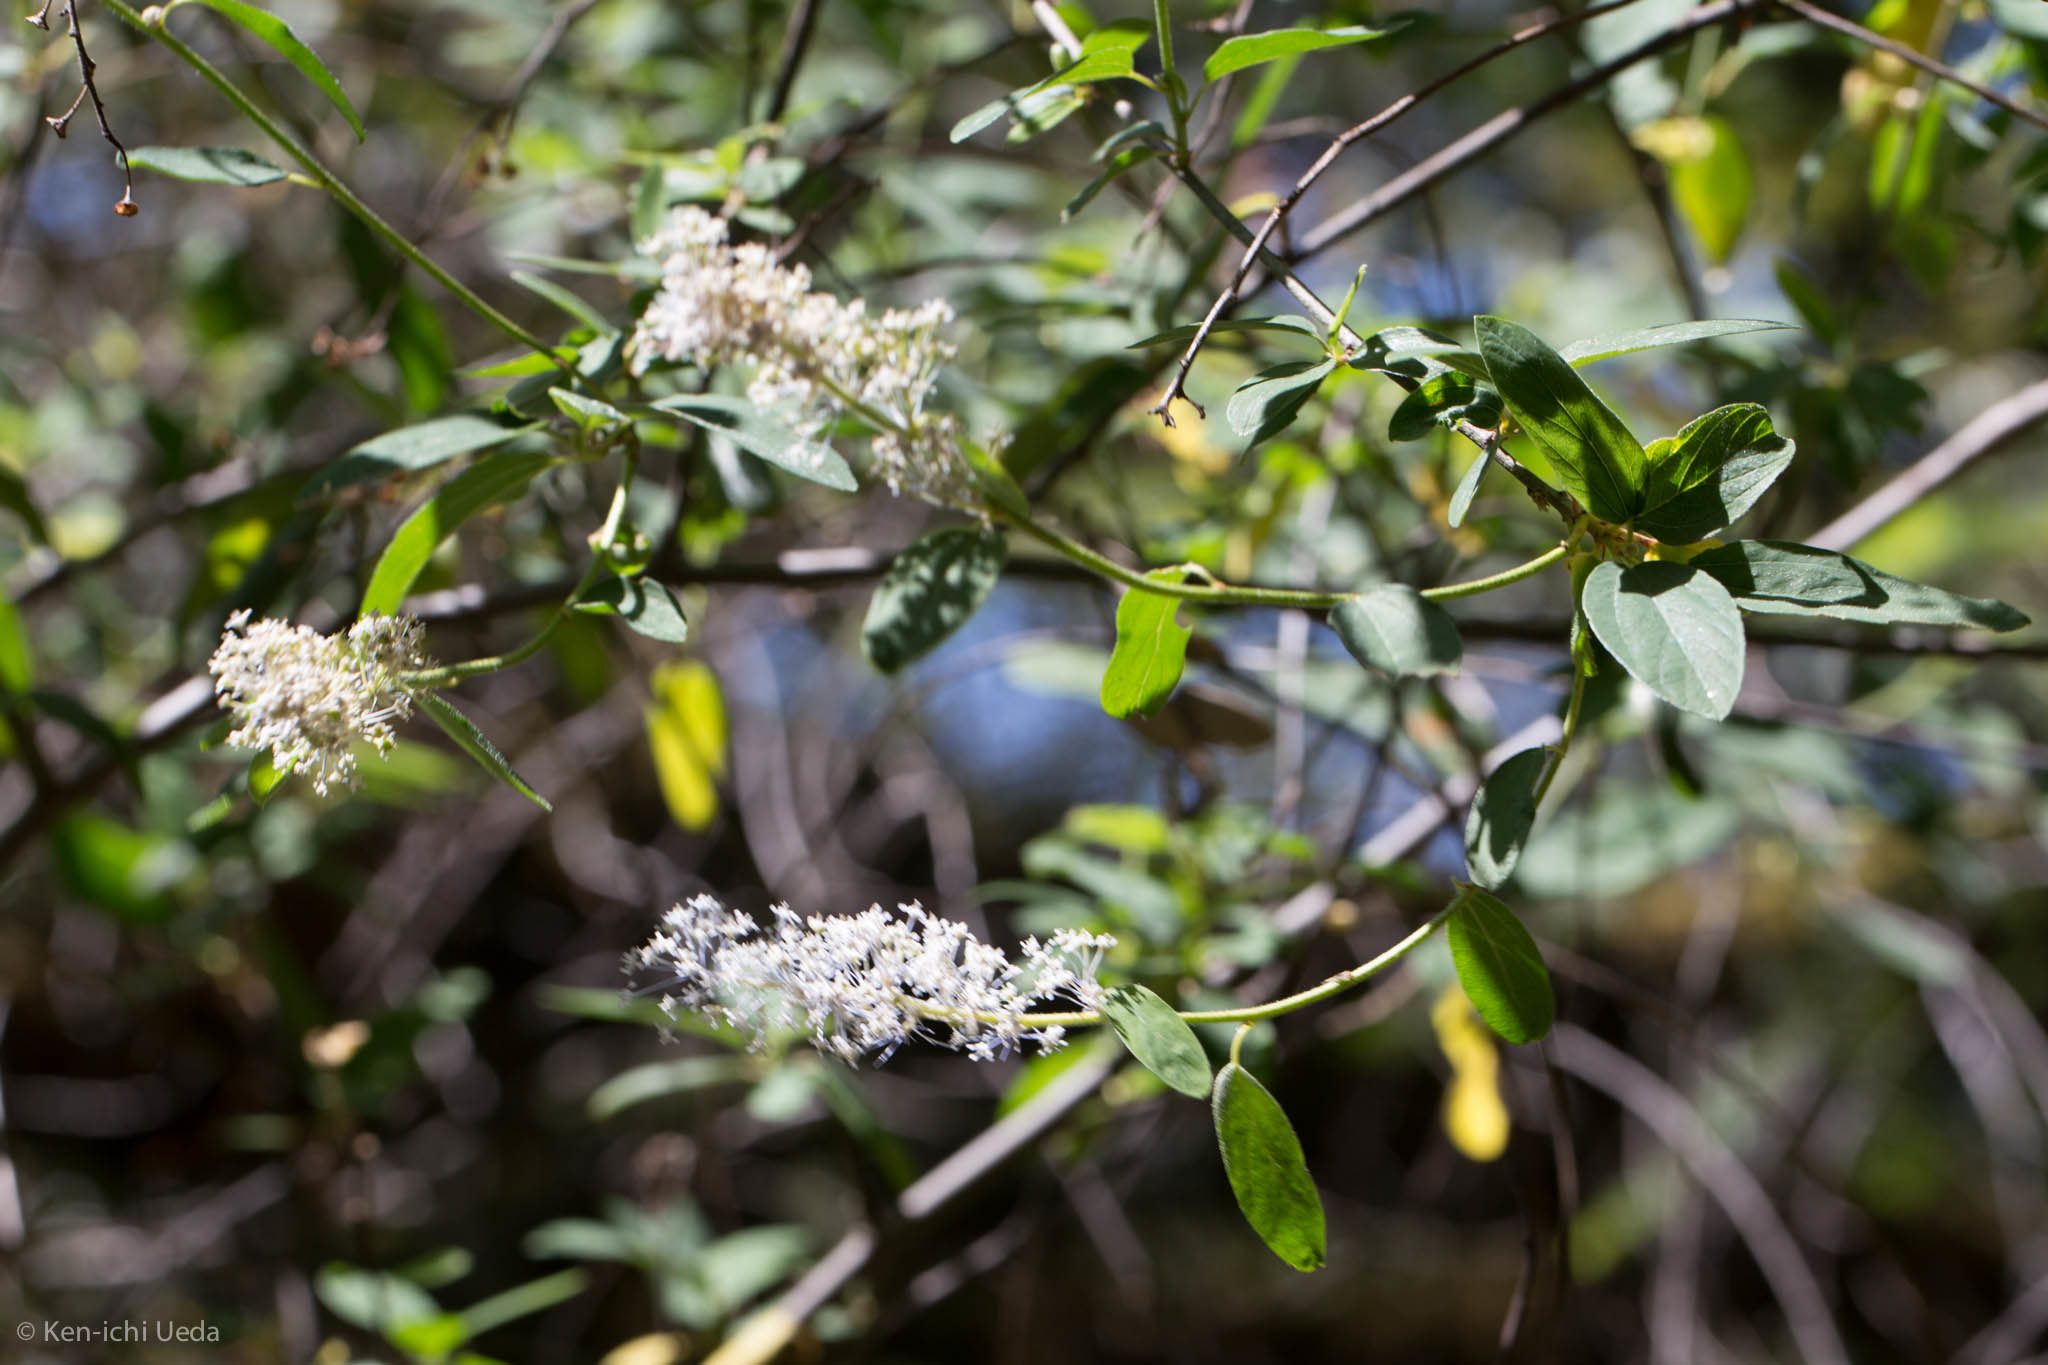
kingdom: Plantae
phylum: Tracheophyta
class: Magnoliopsida
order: Rosales
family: Rhamnaceae
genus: Ceanothus
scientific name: Ceanothus integerrimus
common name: Deerbrush ceanothus
